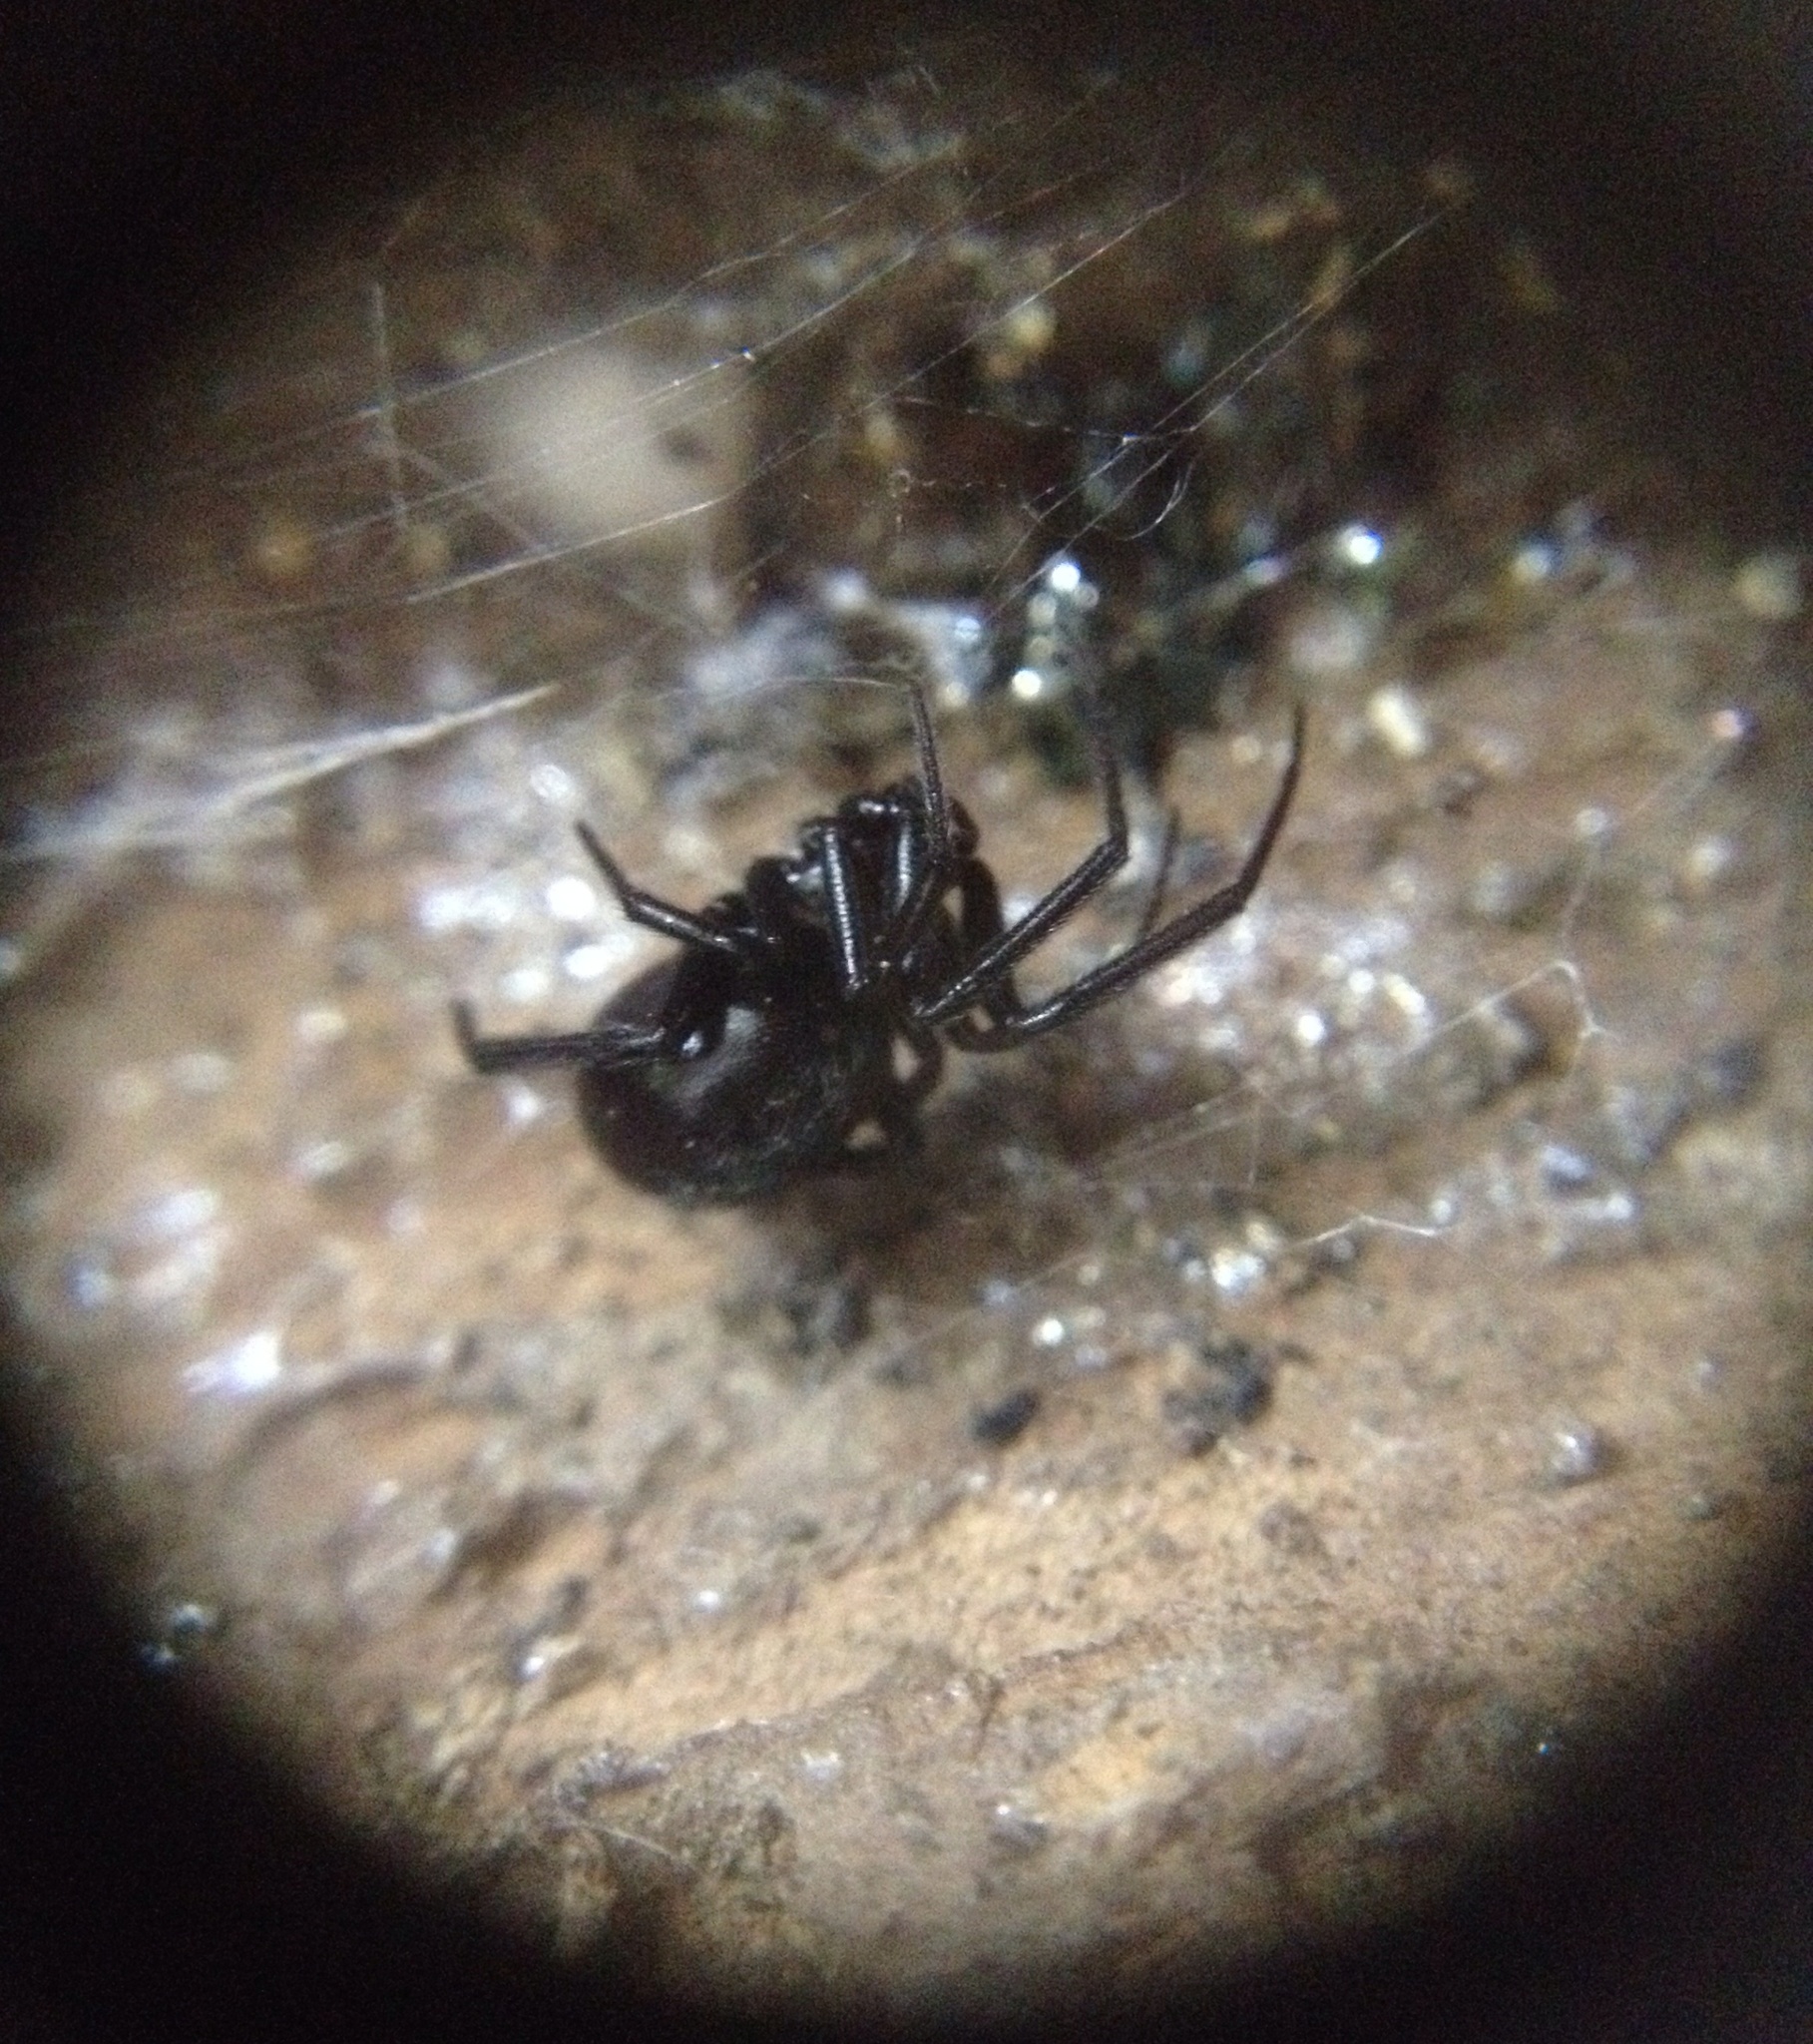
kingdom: Animalia
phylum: Arthropoda
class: Arachnida
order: Araneae
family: Theridiidae
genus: Steatoda
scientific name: Steatoda capensis
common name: Cobweb weaver
